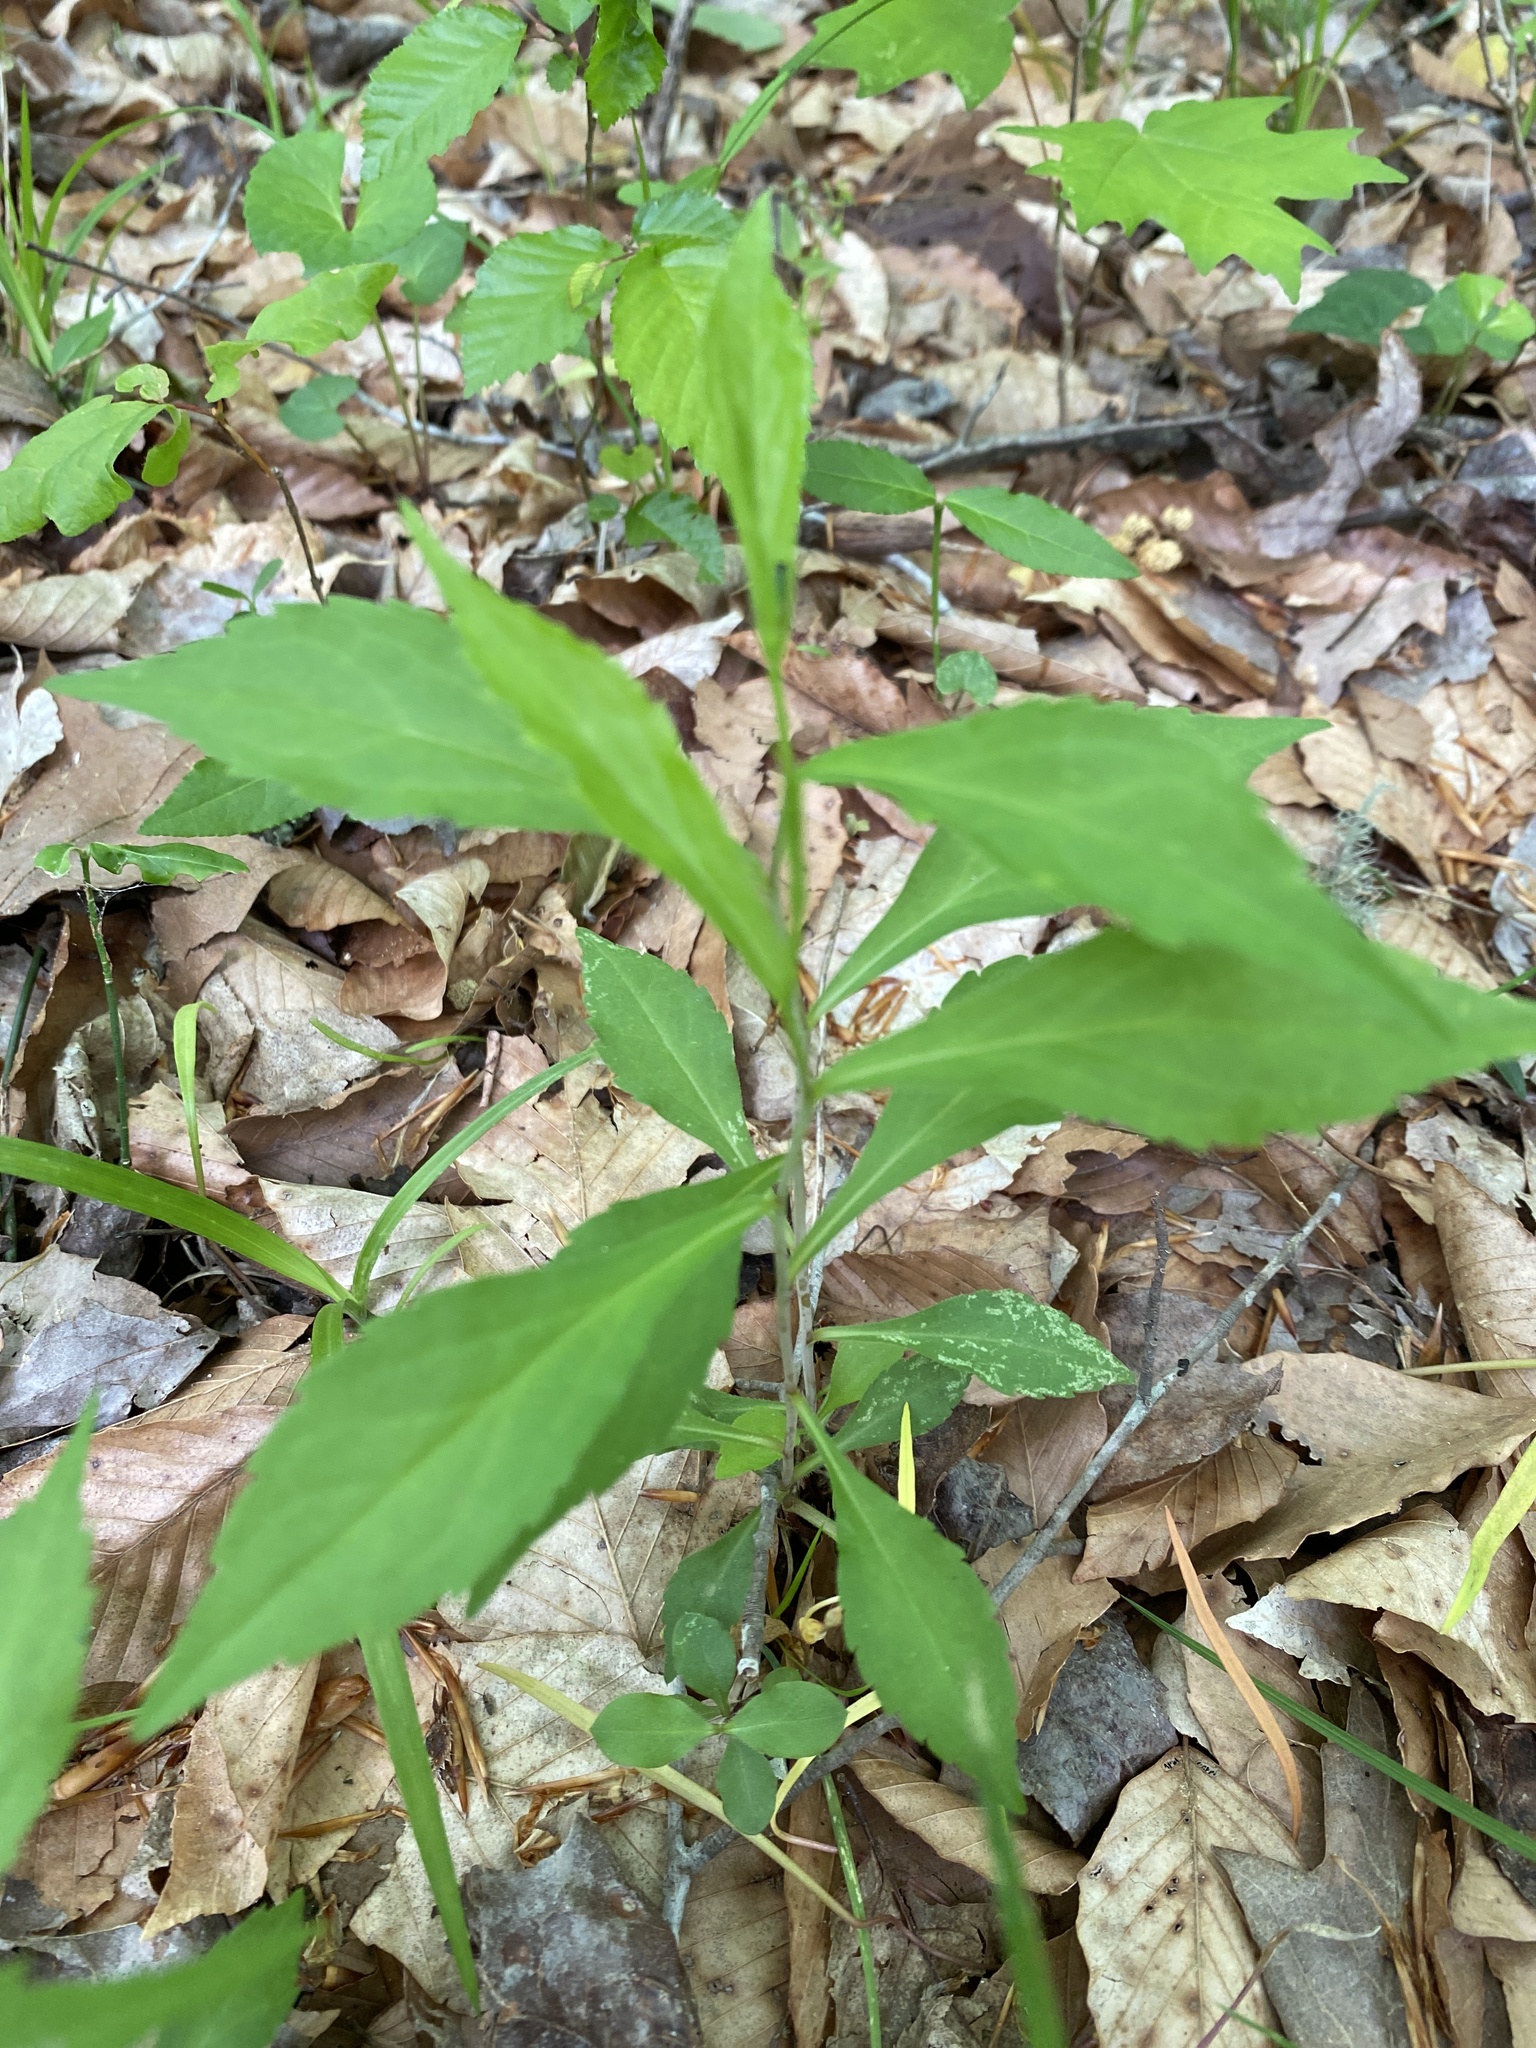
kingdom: Plantae
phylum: Tracheophyta
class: Magnoliopsida
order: Asterales
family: Asteraceae
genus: Solidago
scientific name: Solidago caesia
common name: Woodland goldenrod
